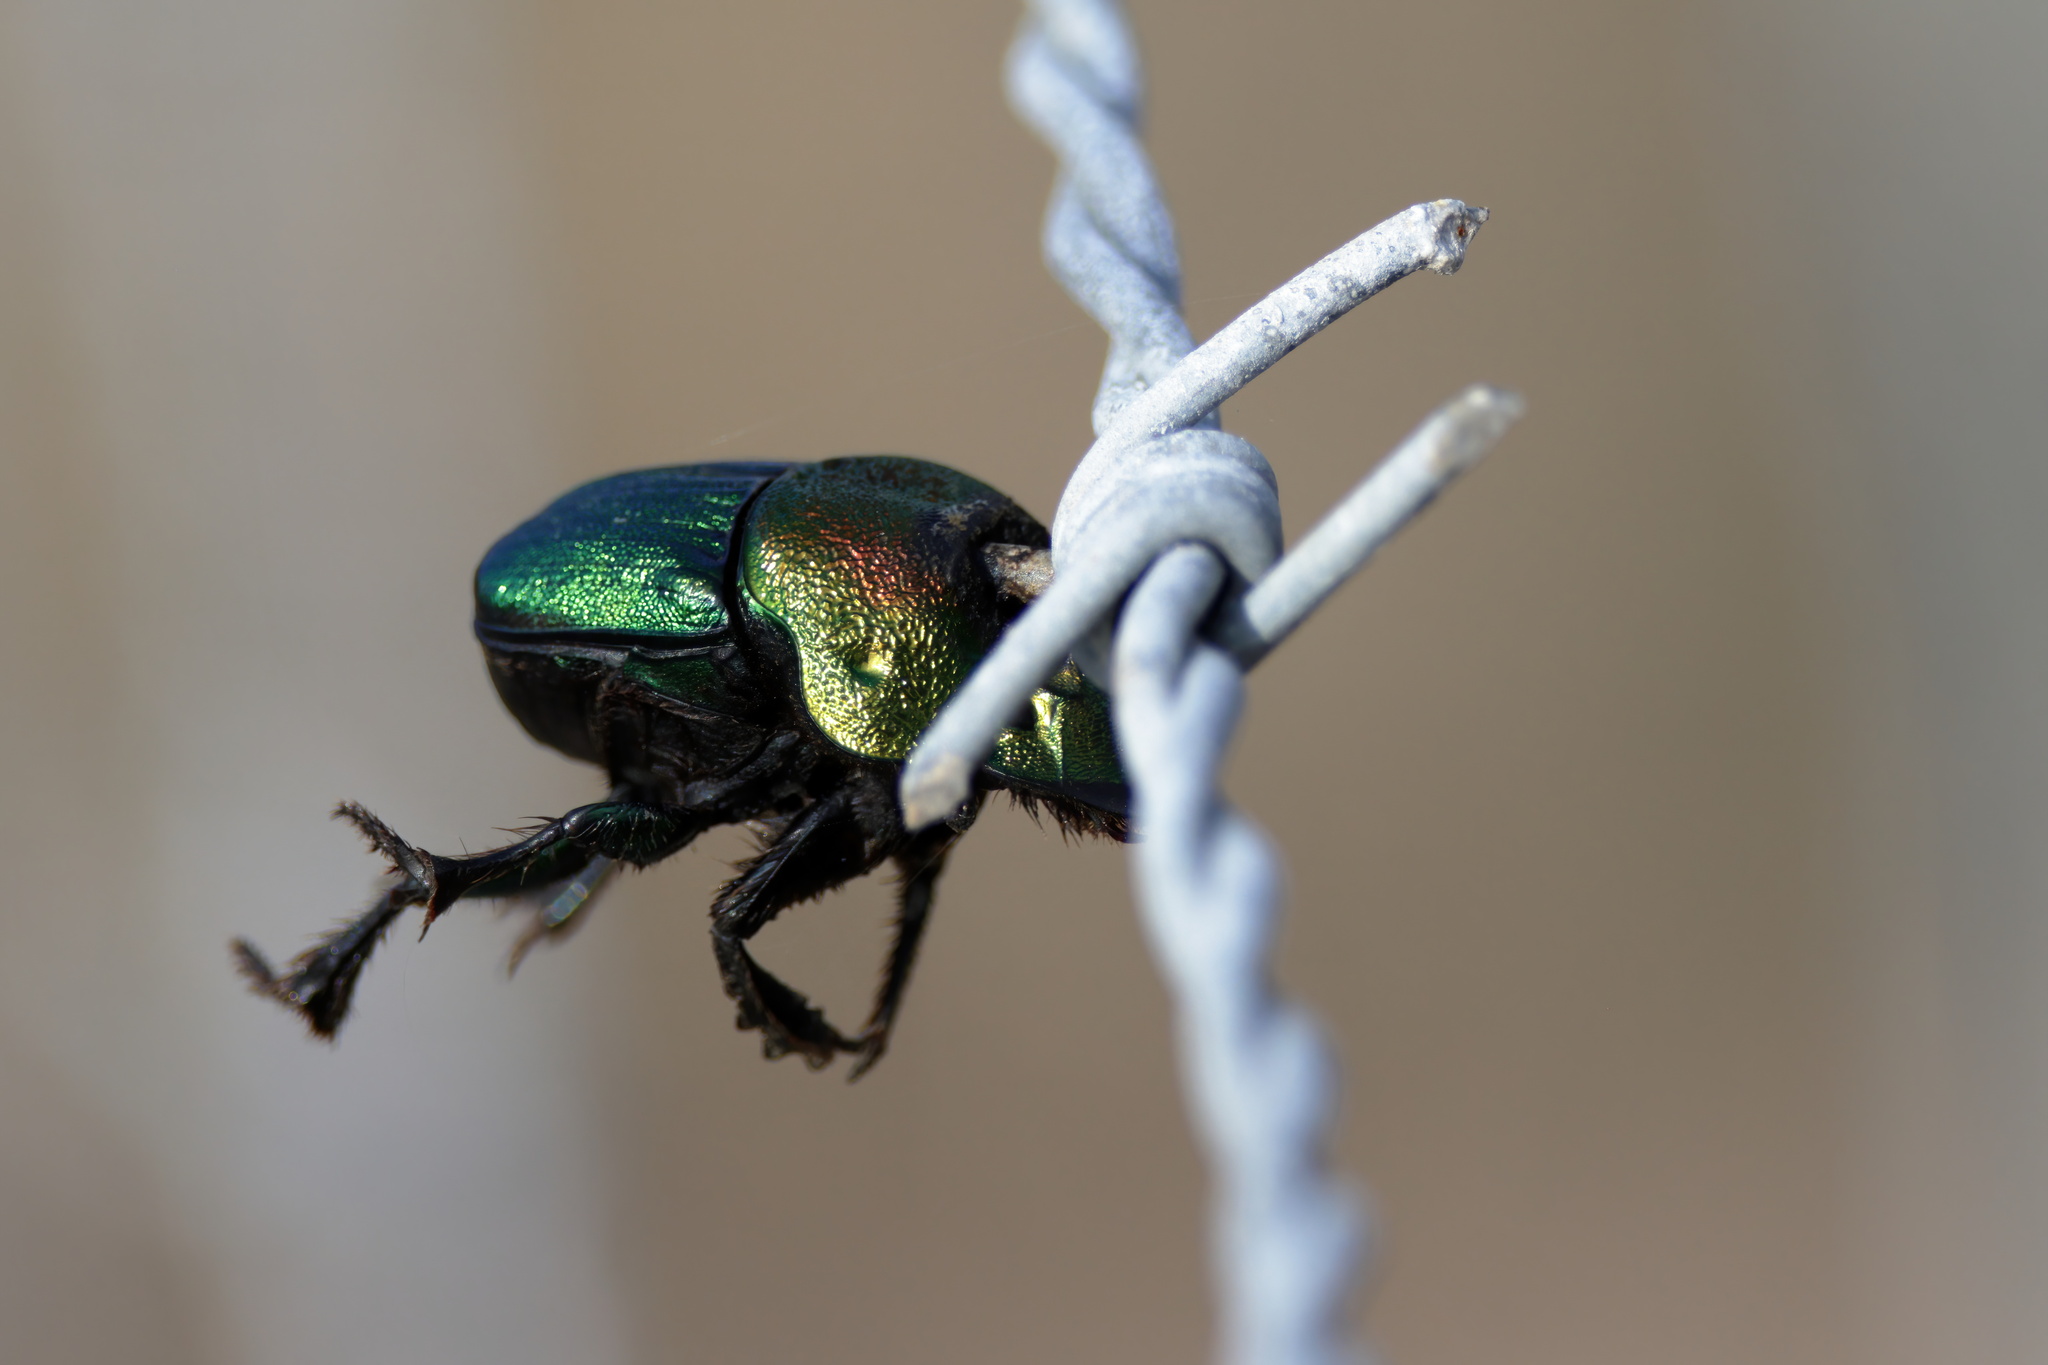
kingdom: Animalia
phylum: Arthropoda
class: Insecta
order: Coleoptera
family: Scarabaeidae
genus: Phanaeus
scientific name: Phanaeus vindex
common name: Rainbow scarab
